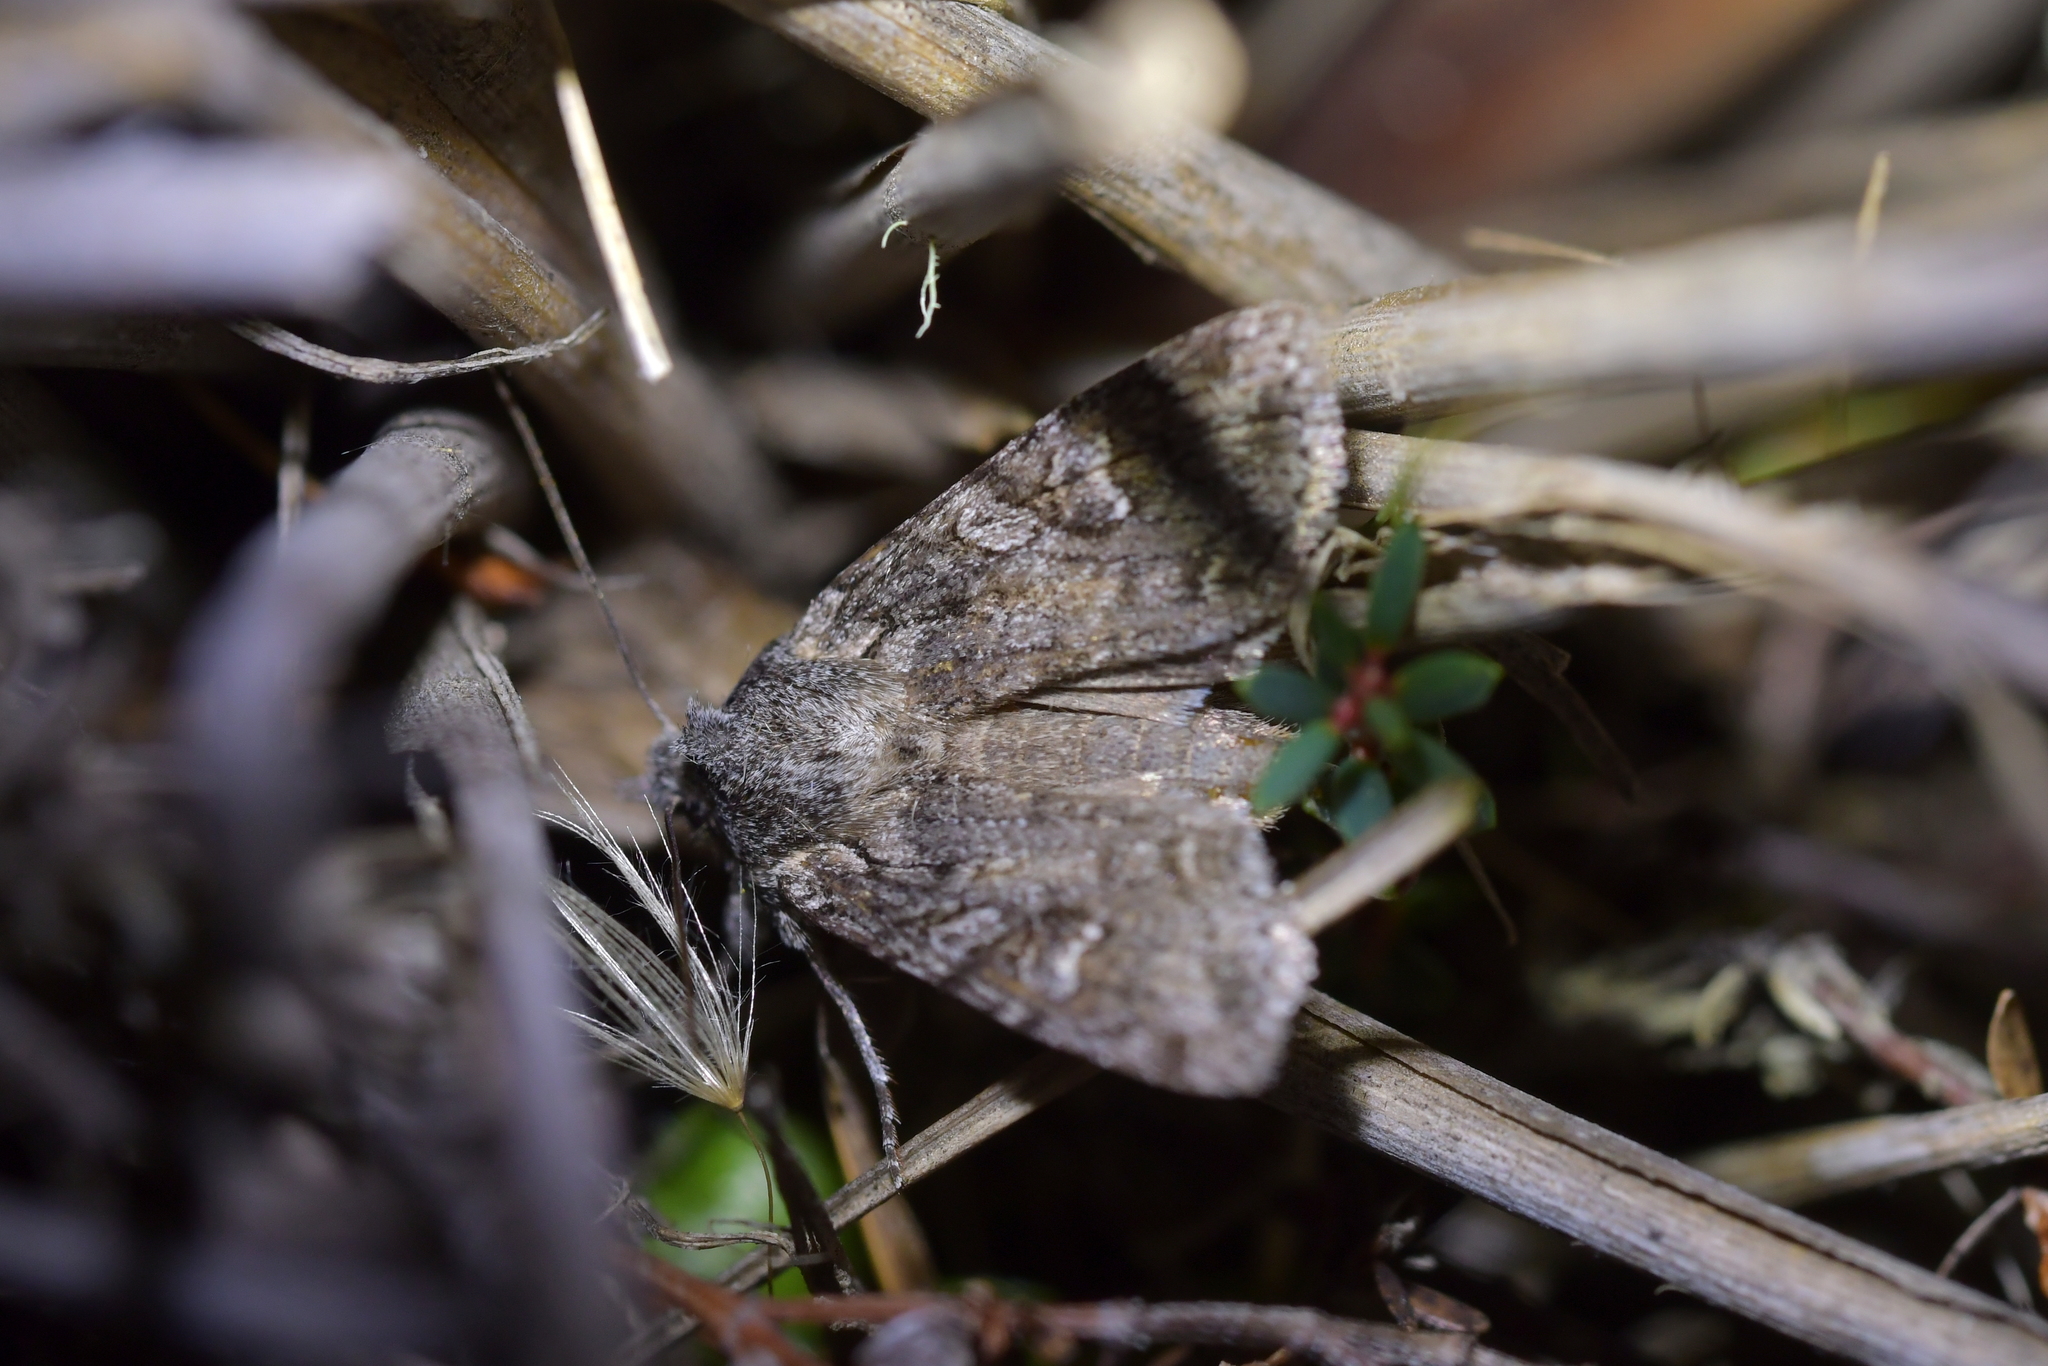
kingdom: Animalia
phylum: Arthropoda
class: Insecta
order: Lepidoptera
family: Noctuidae
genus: Physetica
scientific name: Physetica longstaffii
